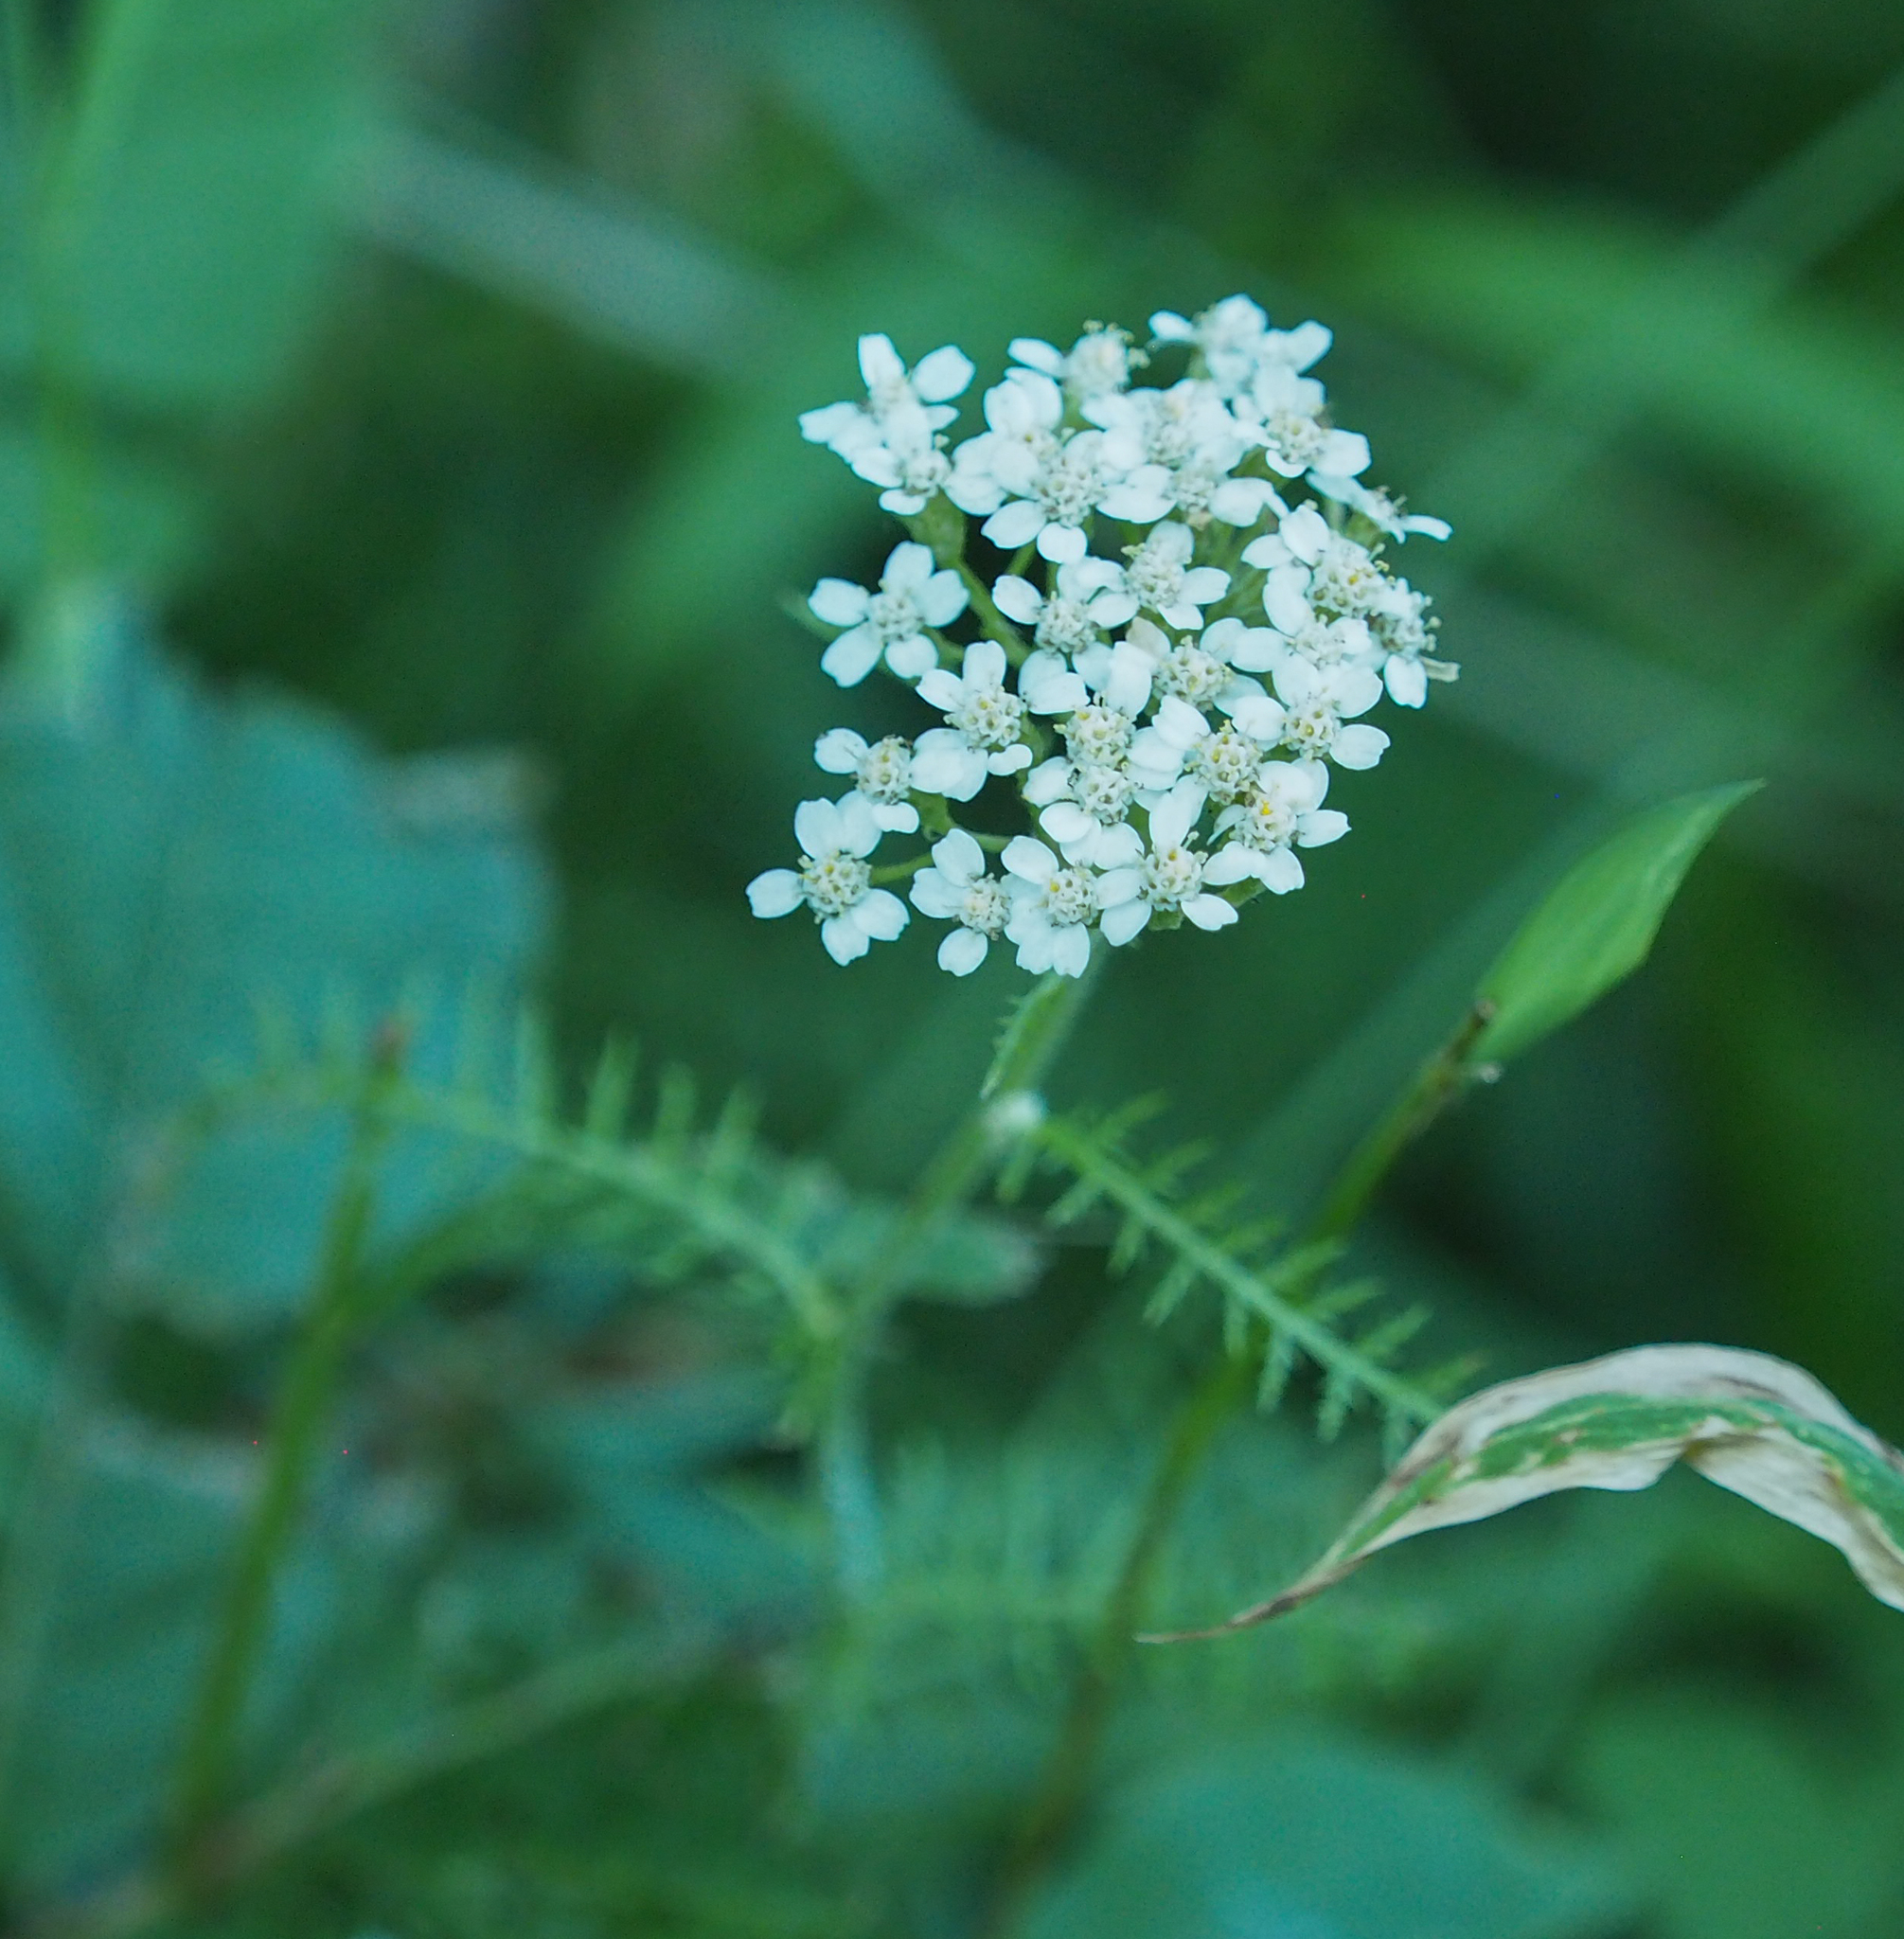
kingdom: Plantae
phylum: Tracheophyta
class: Magnoliopsida
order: Asterales
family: Asteraceae
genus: Achillea
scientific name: Achillea millefolium
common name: Yarrow
